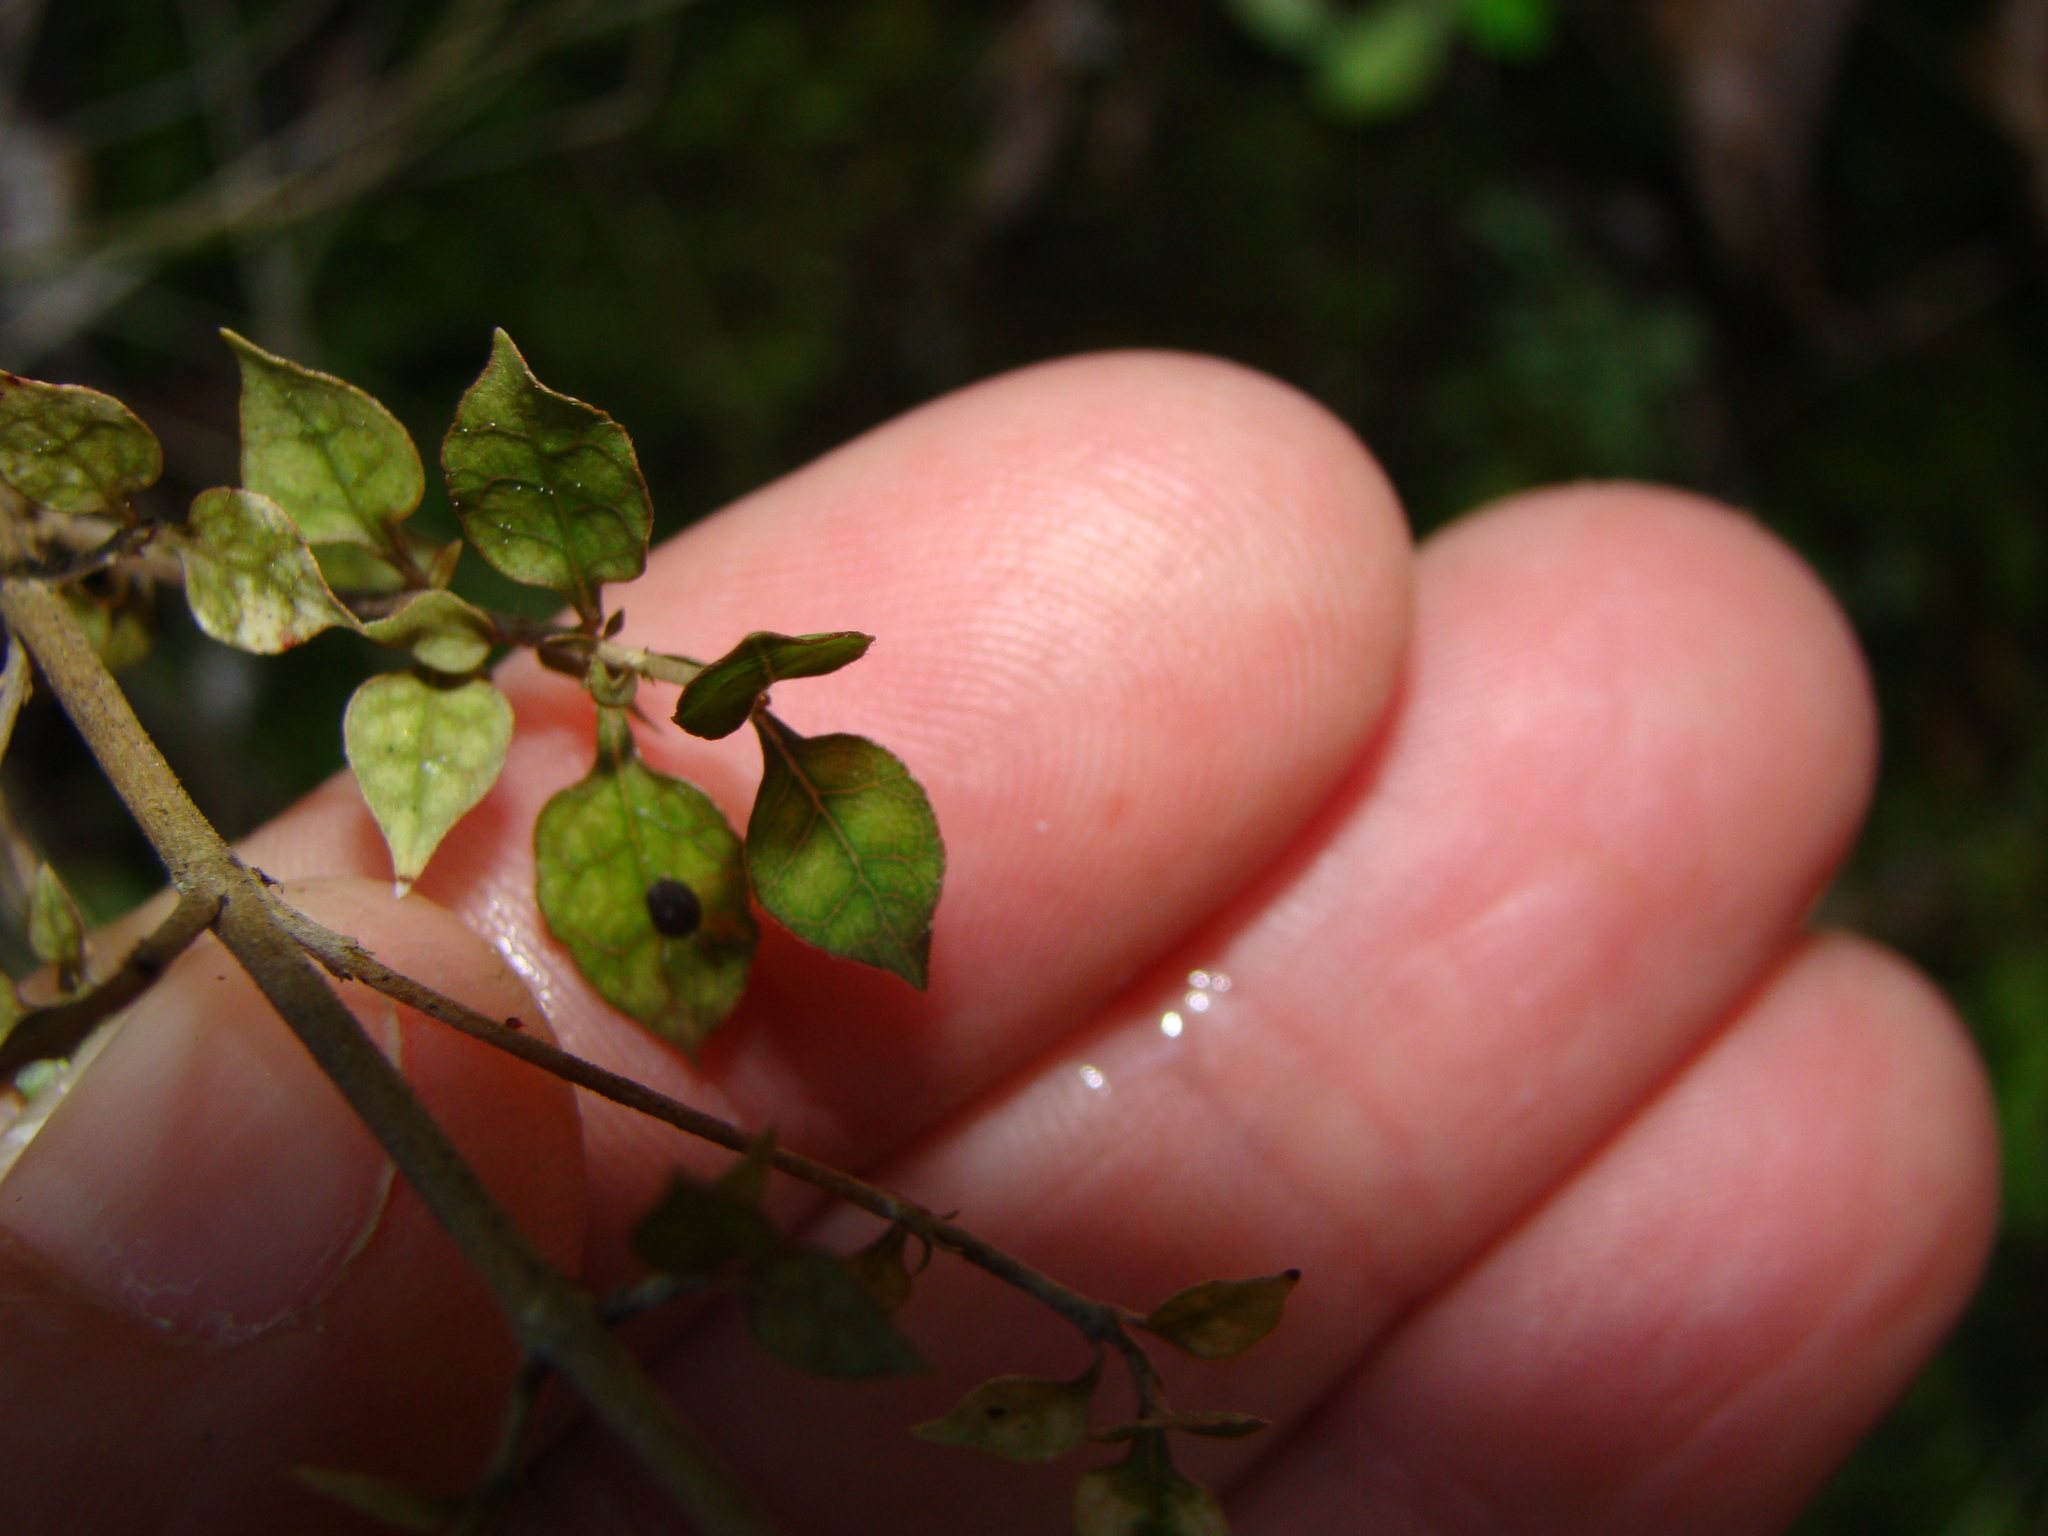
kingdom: Plantae
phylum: Tracheophyta
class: Magnoliopsida
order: Gentianales
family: Rubiaceae
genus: Coprosma
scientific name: Coprosma areolata
